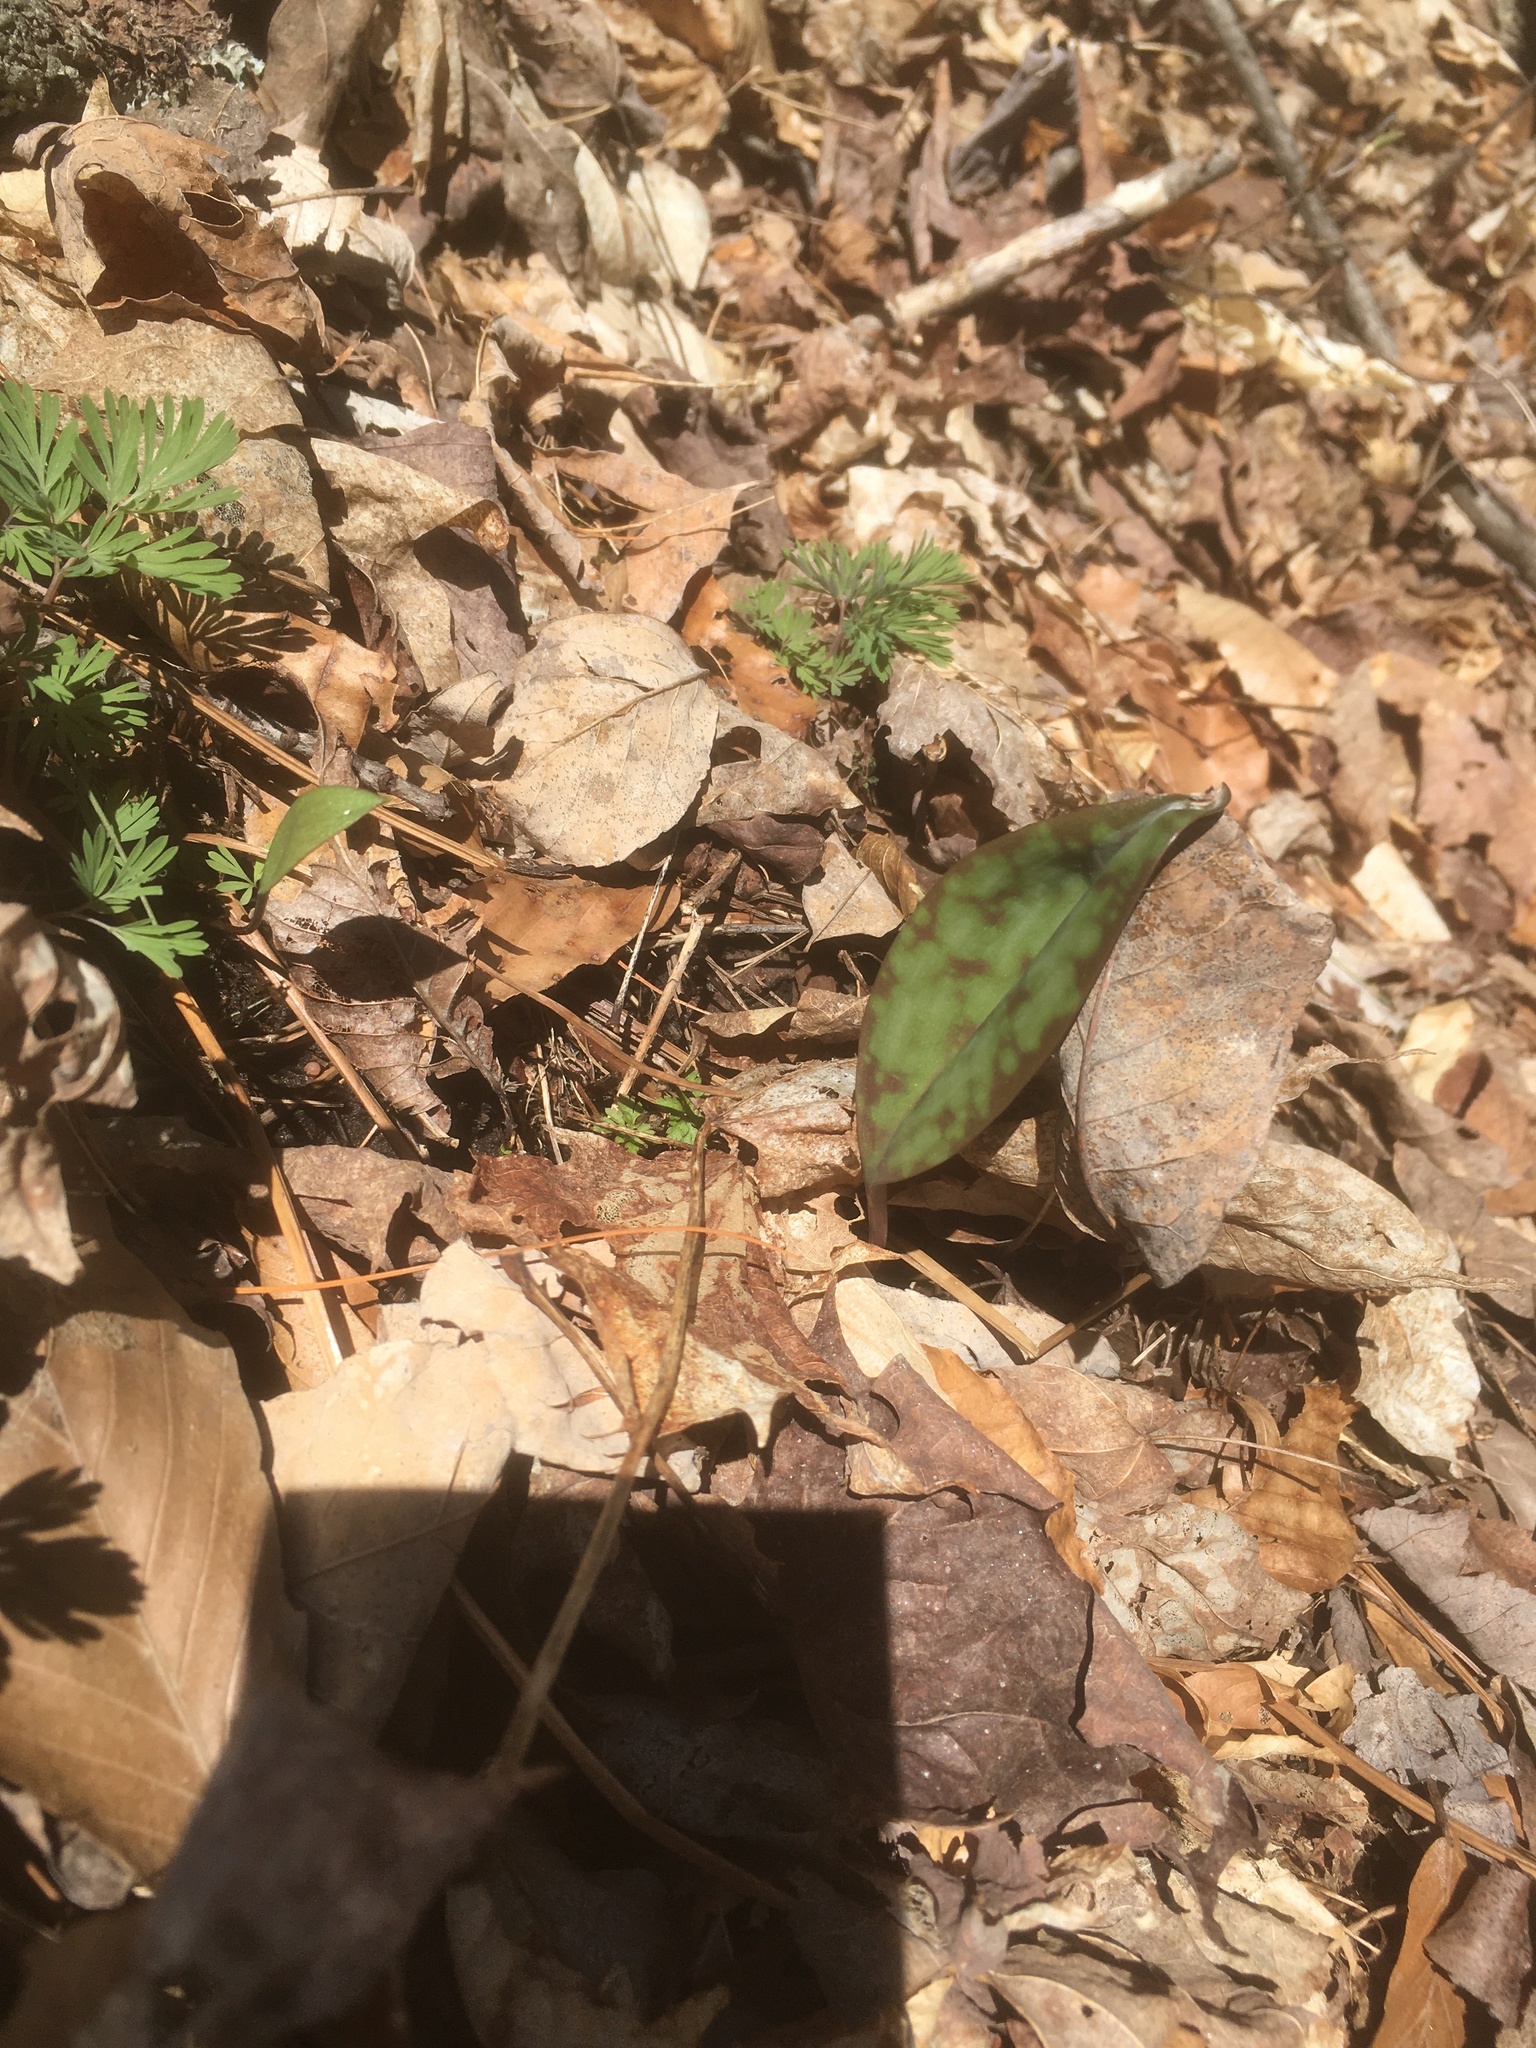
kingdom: Plantae
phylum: Tracheophyta
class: Magnoliopsida
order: Ranunculales
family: Papaveraceae
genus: Dicentra
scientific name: Dicentra
